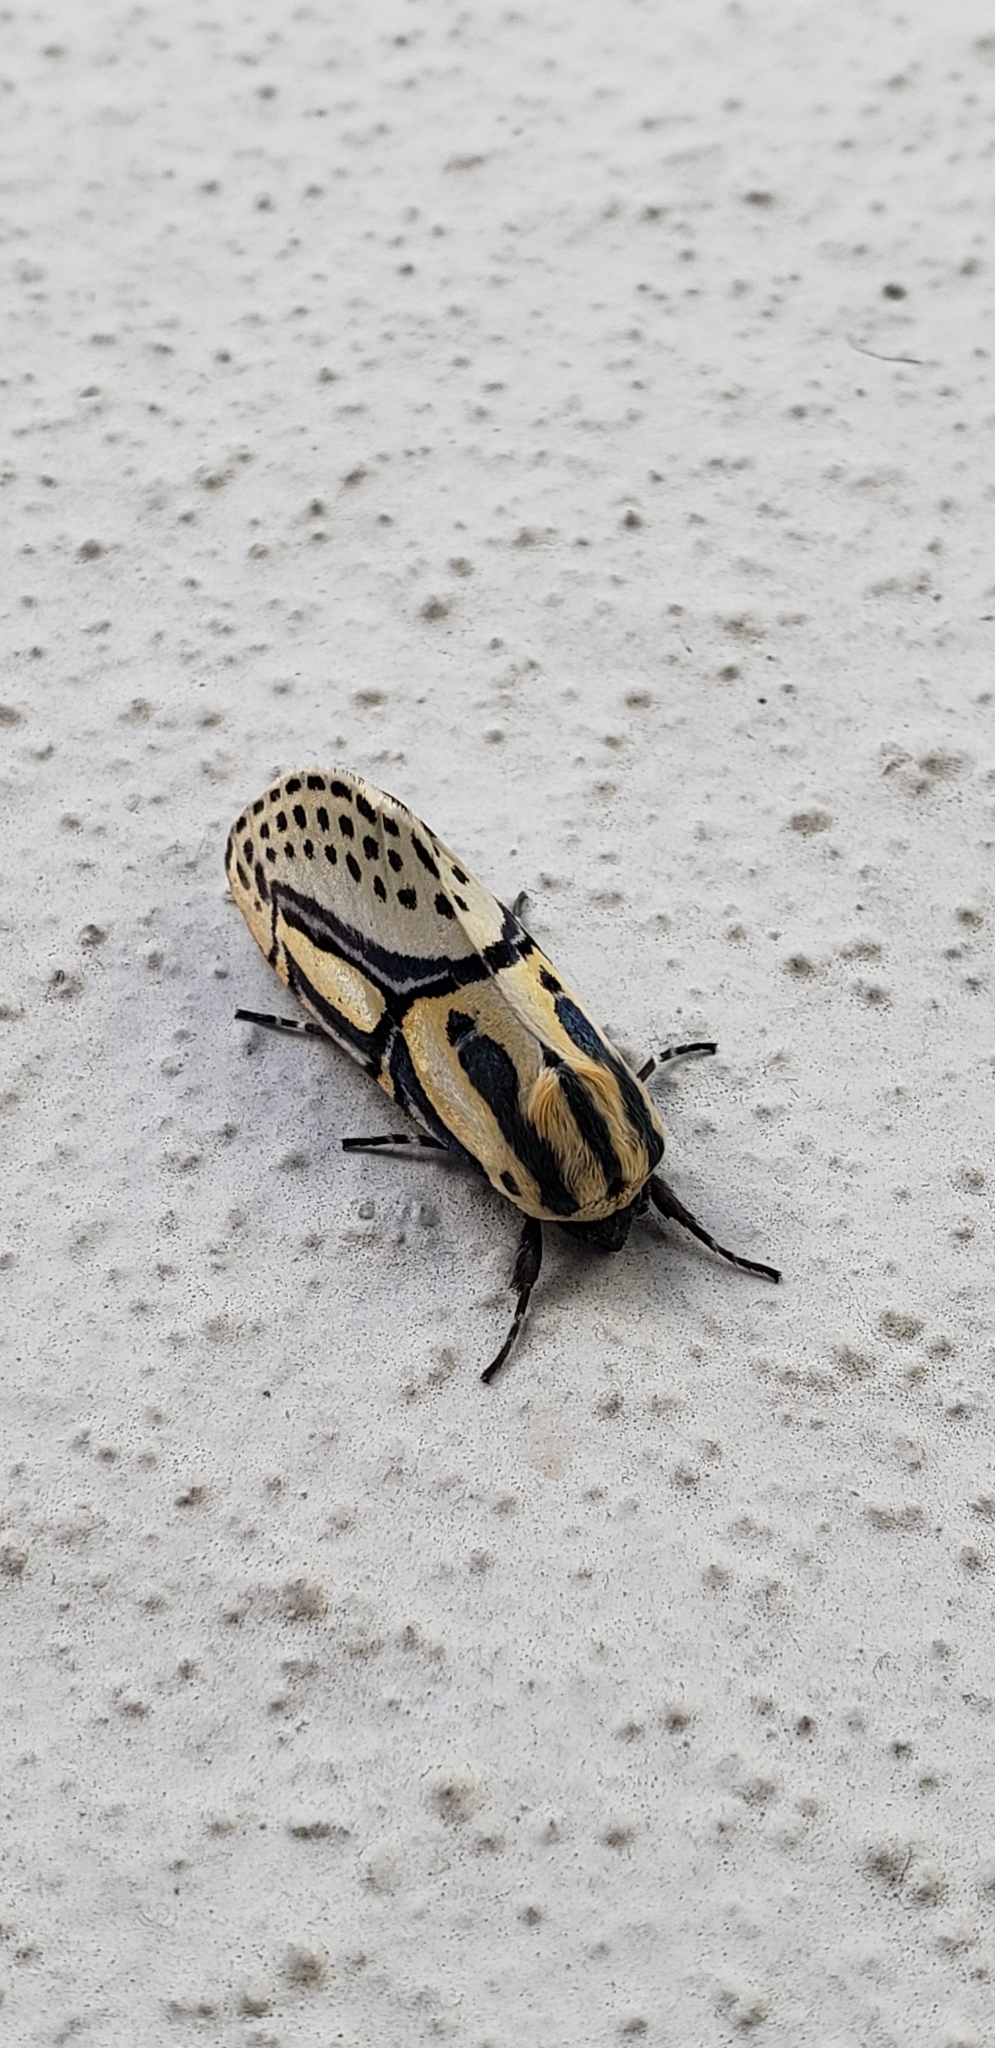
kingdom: Animalia
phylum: Arthropoda
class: Insecta
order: Lepidoptera
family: Erebidae
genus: Diphthera
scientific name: Diphthera festiva
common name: Hieroglyphic moth
